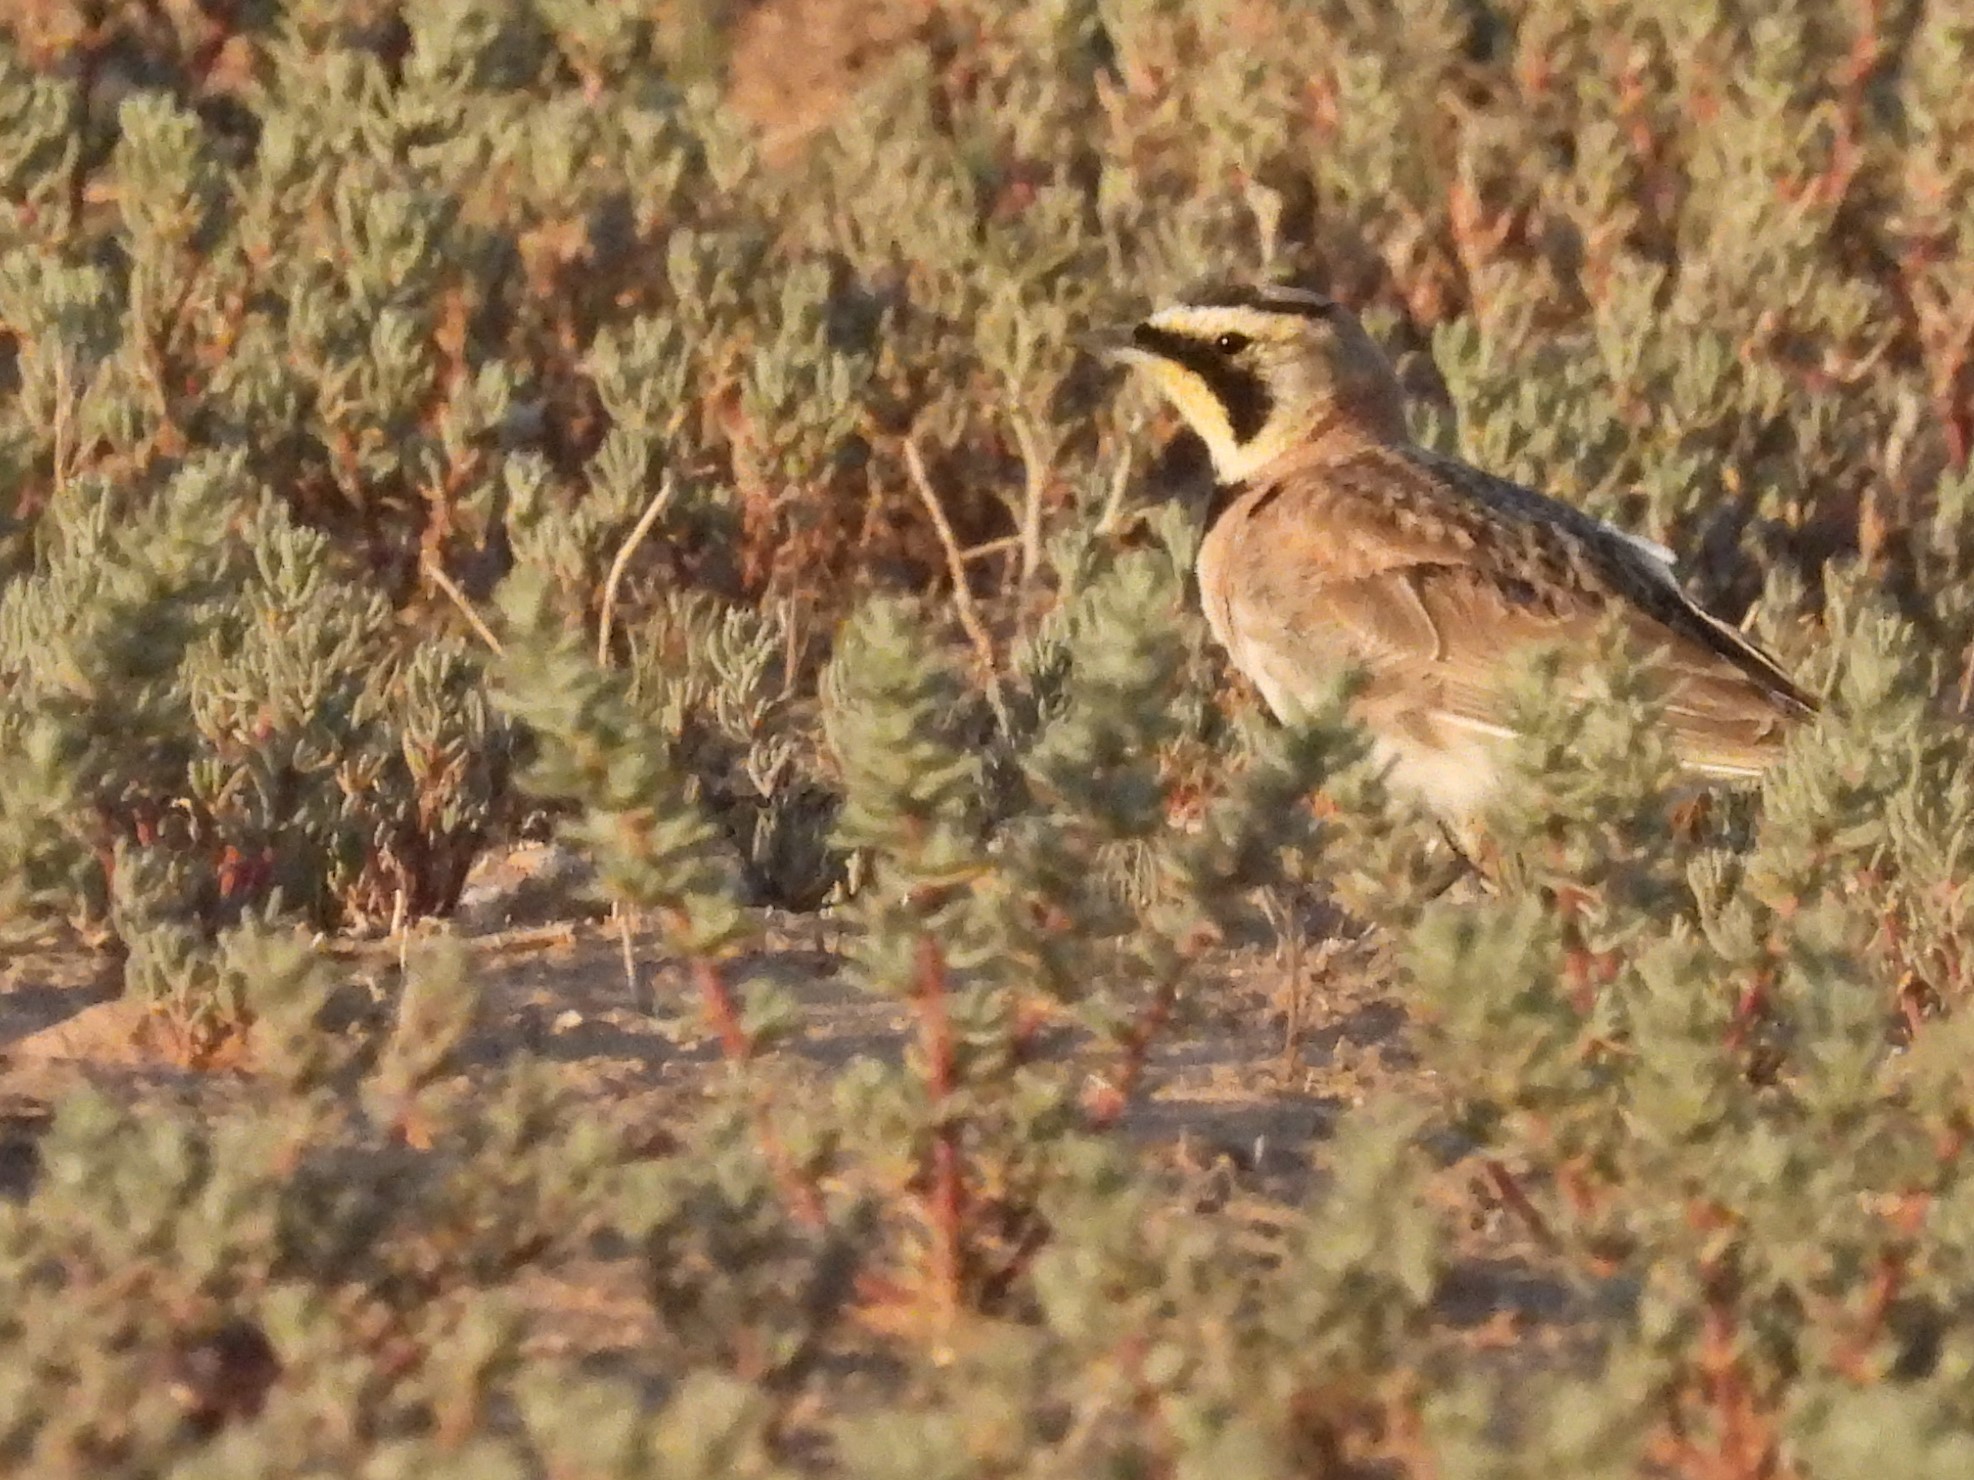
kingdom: Animalia
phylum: Chordata
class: Aves
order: Passeriformes
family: Alaudidae
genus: Eremophila
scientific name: Eremophila alpestris
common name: Horned lark
